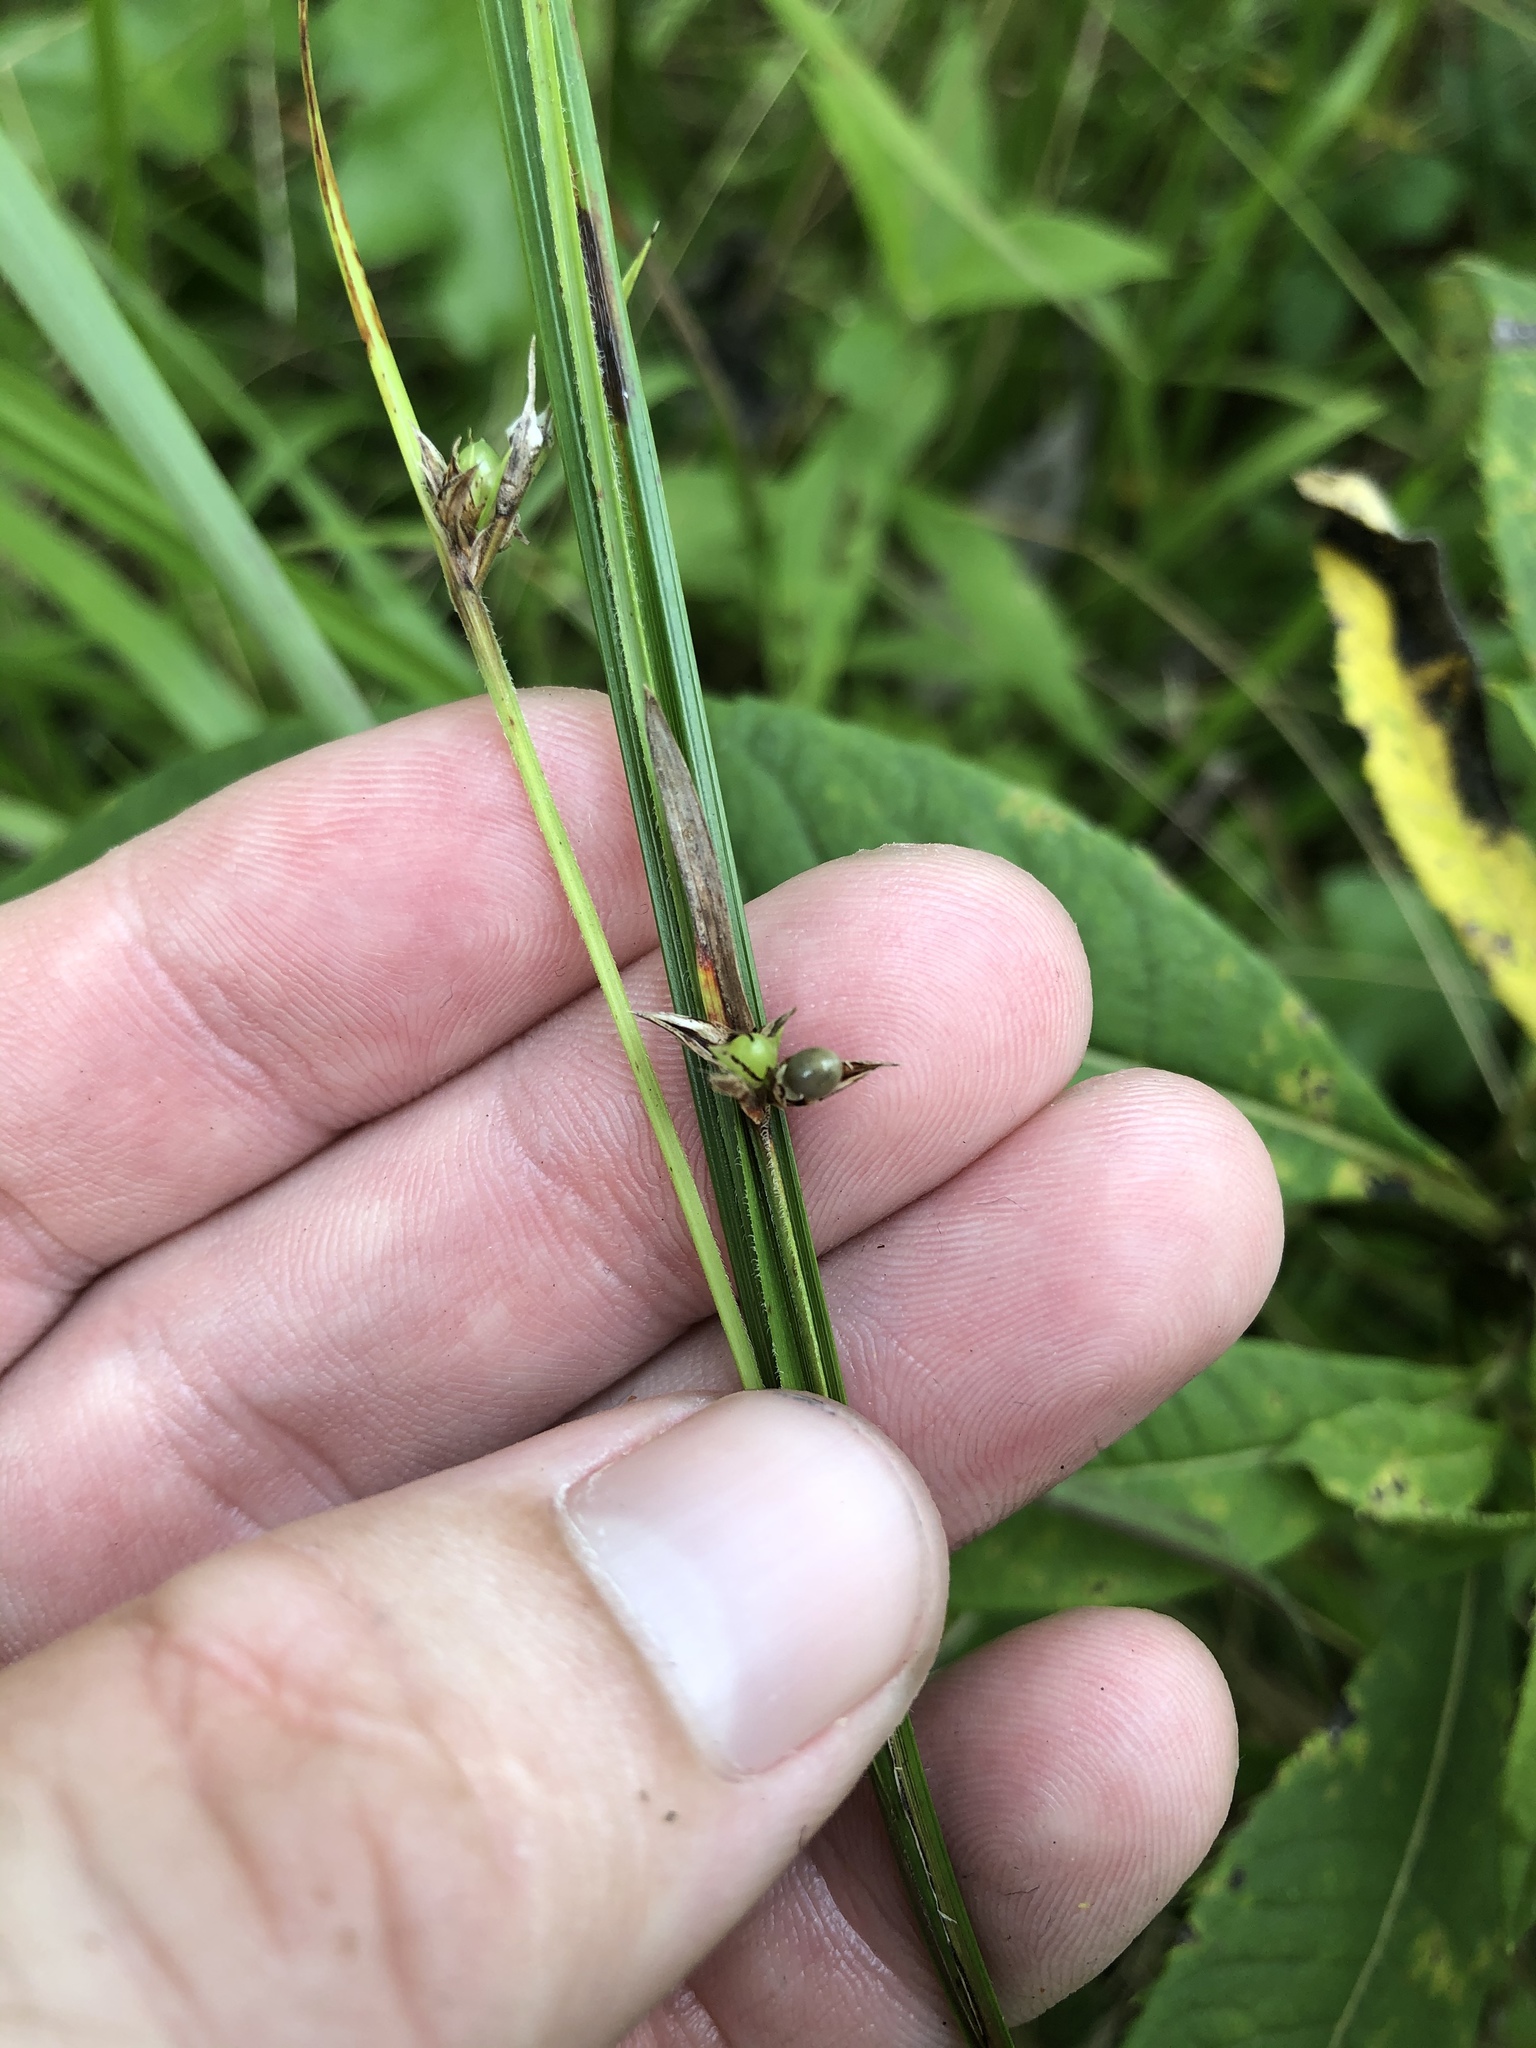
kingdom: Plantae
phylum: Tracheophyta
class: Liliopsida
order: Poales
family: Cyperaceae
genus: Scleria
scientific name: Scleria oligantha
